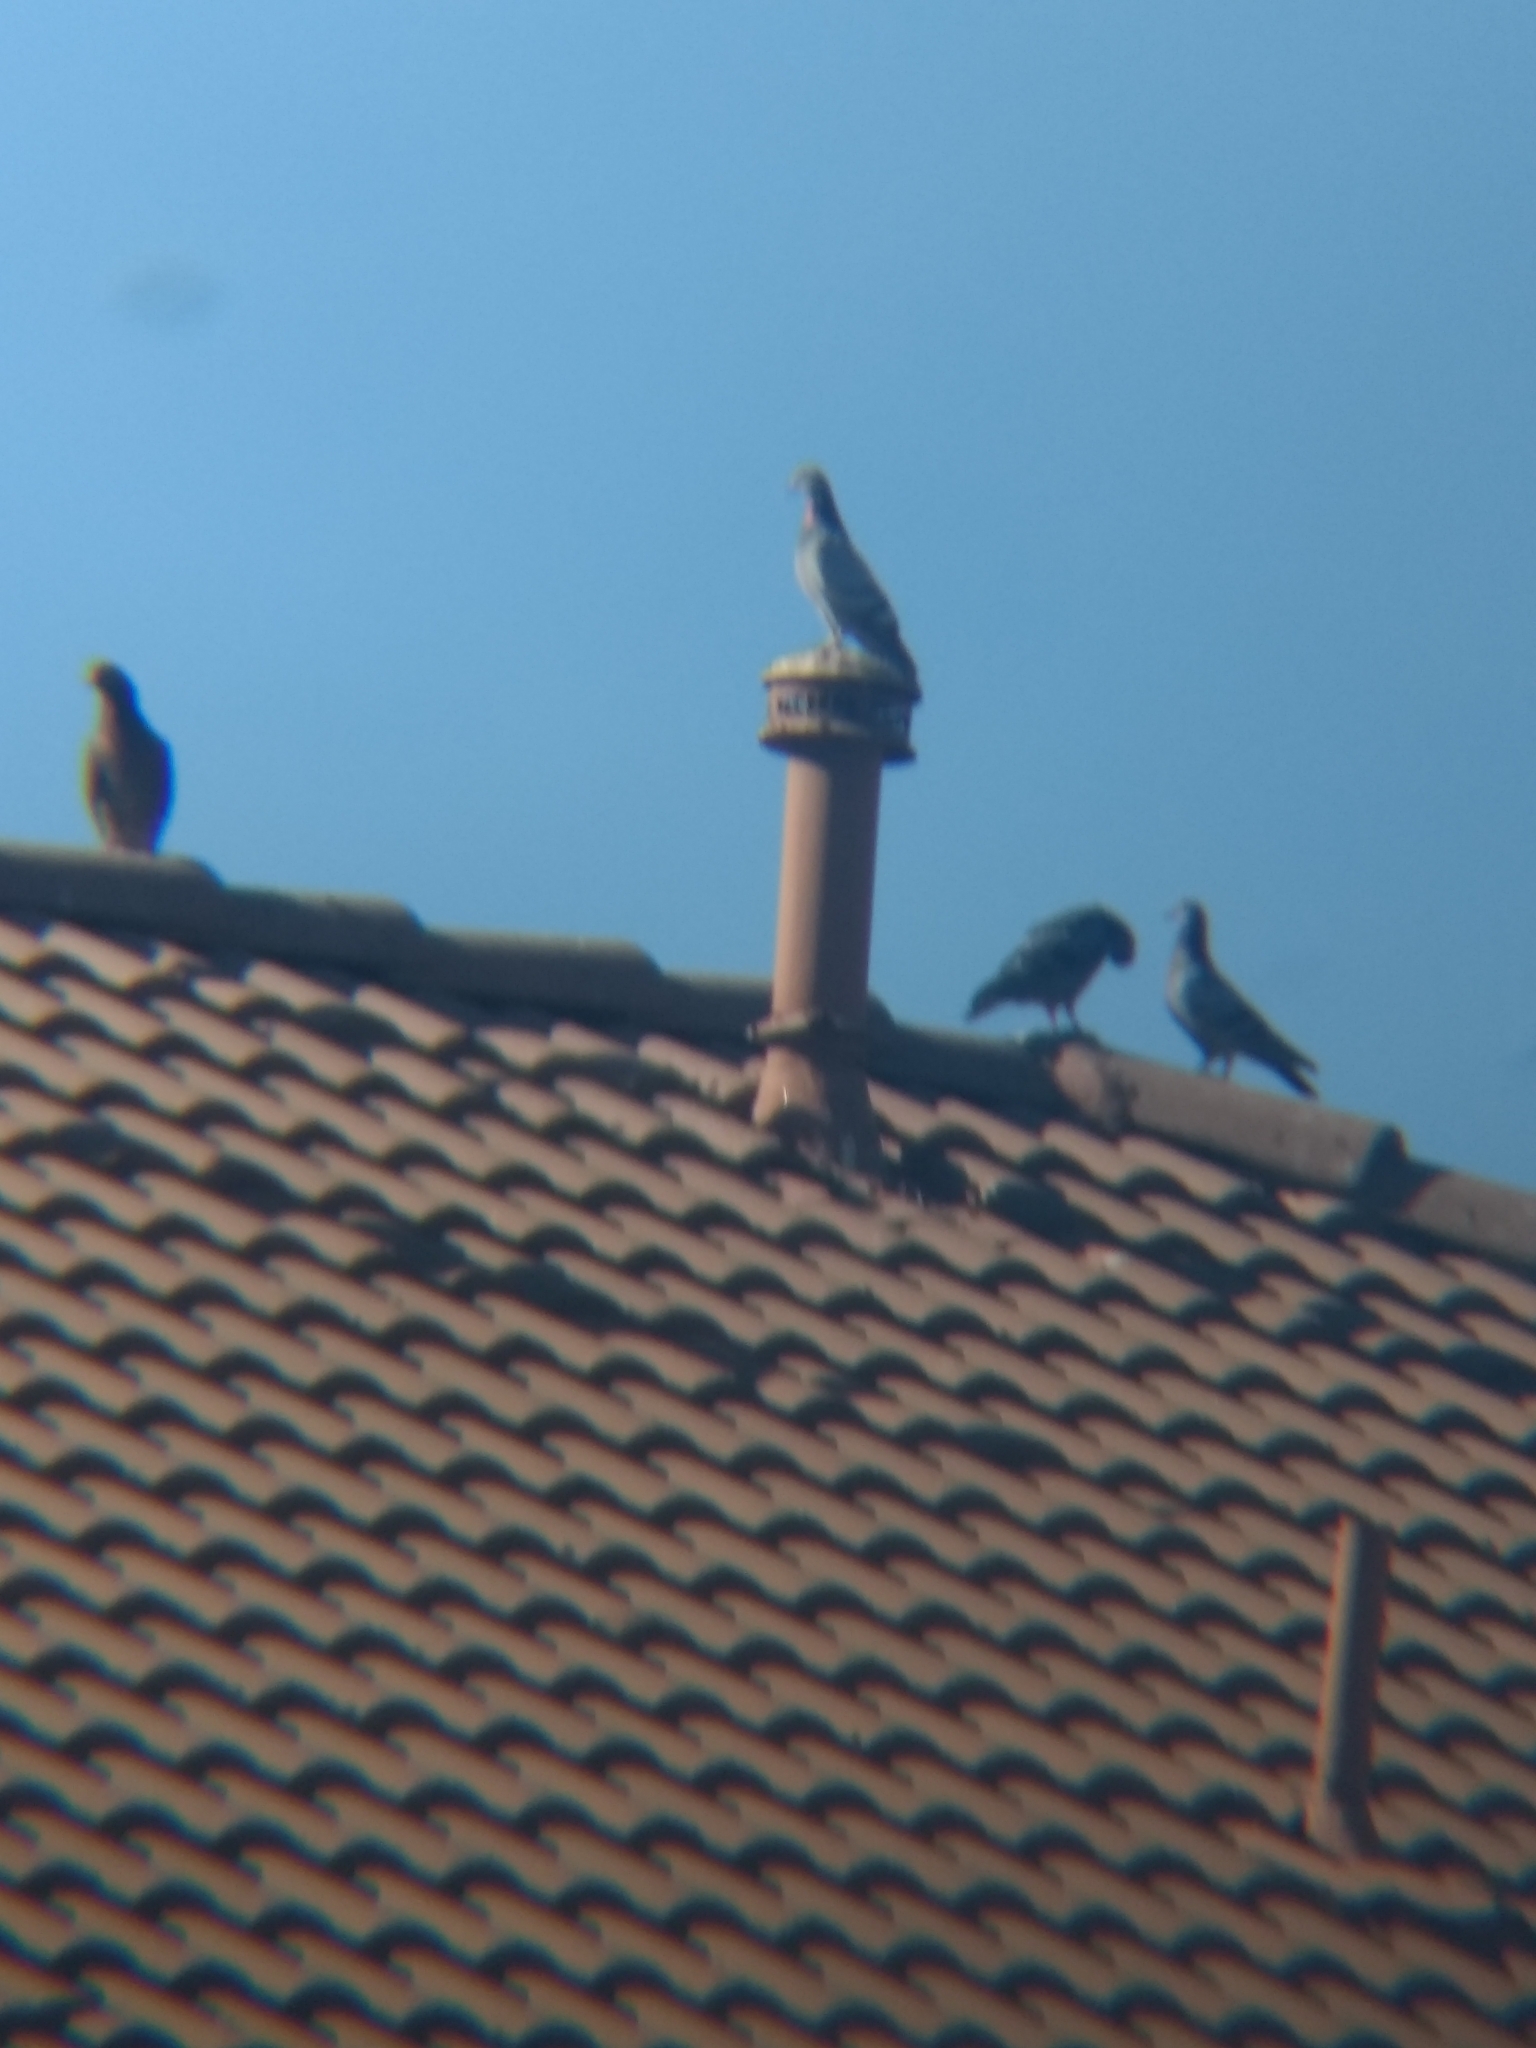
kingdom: Animalia
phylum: Chordata
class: Aves
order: Columbiformes
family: Columbidae
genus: Columba
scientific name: Columba livia
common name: Rock pigeon
